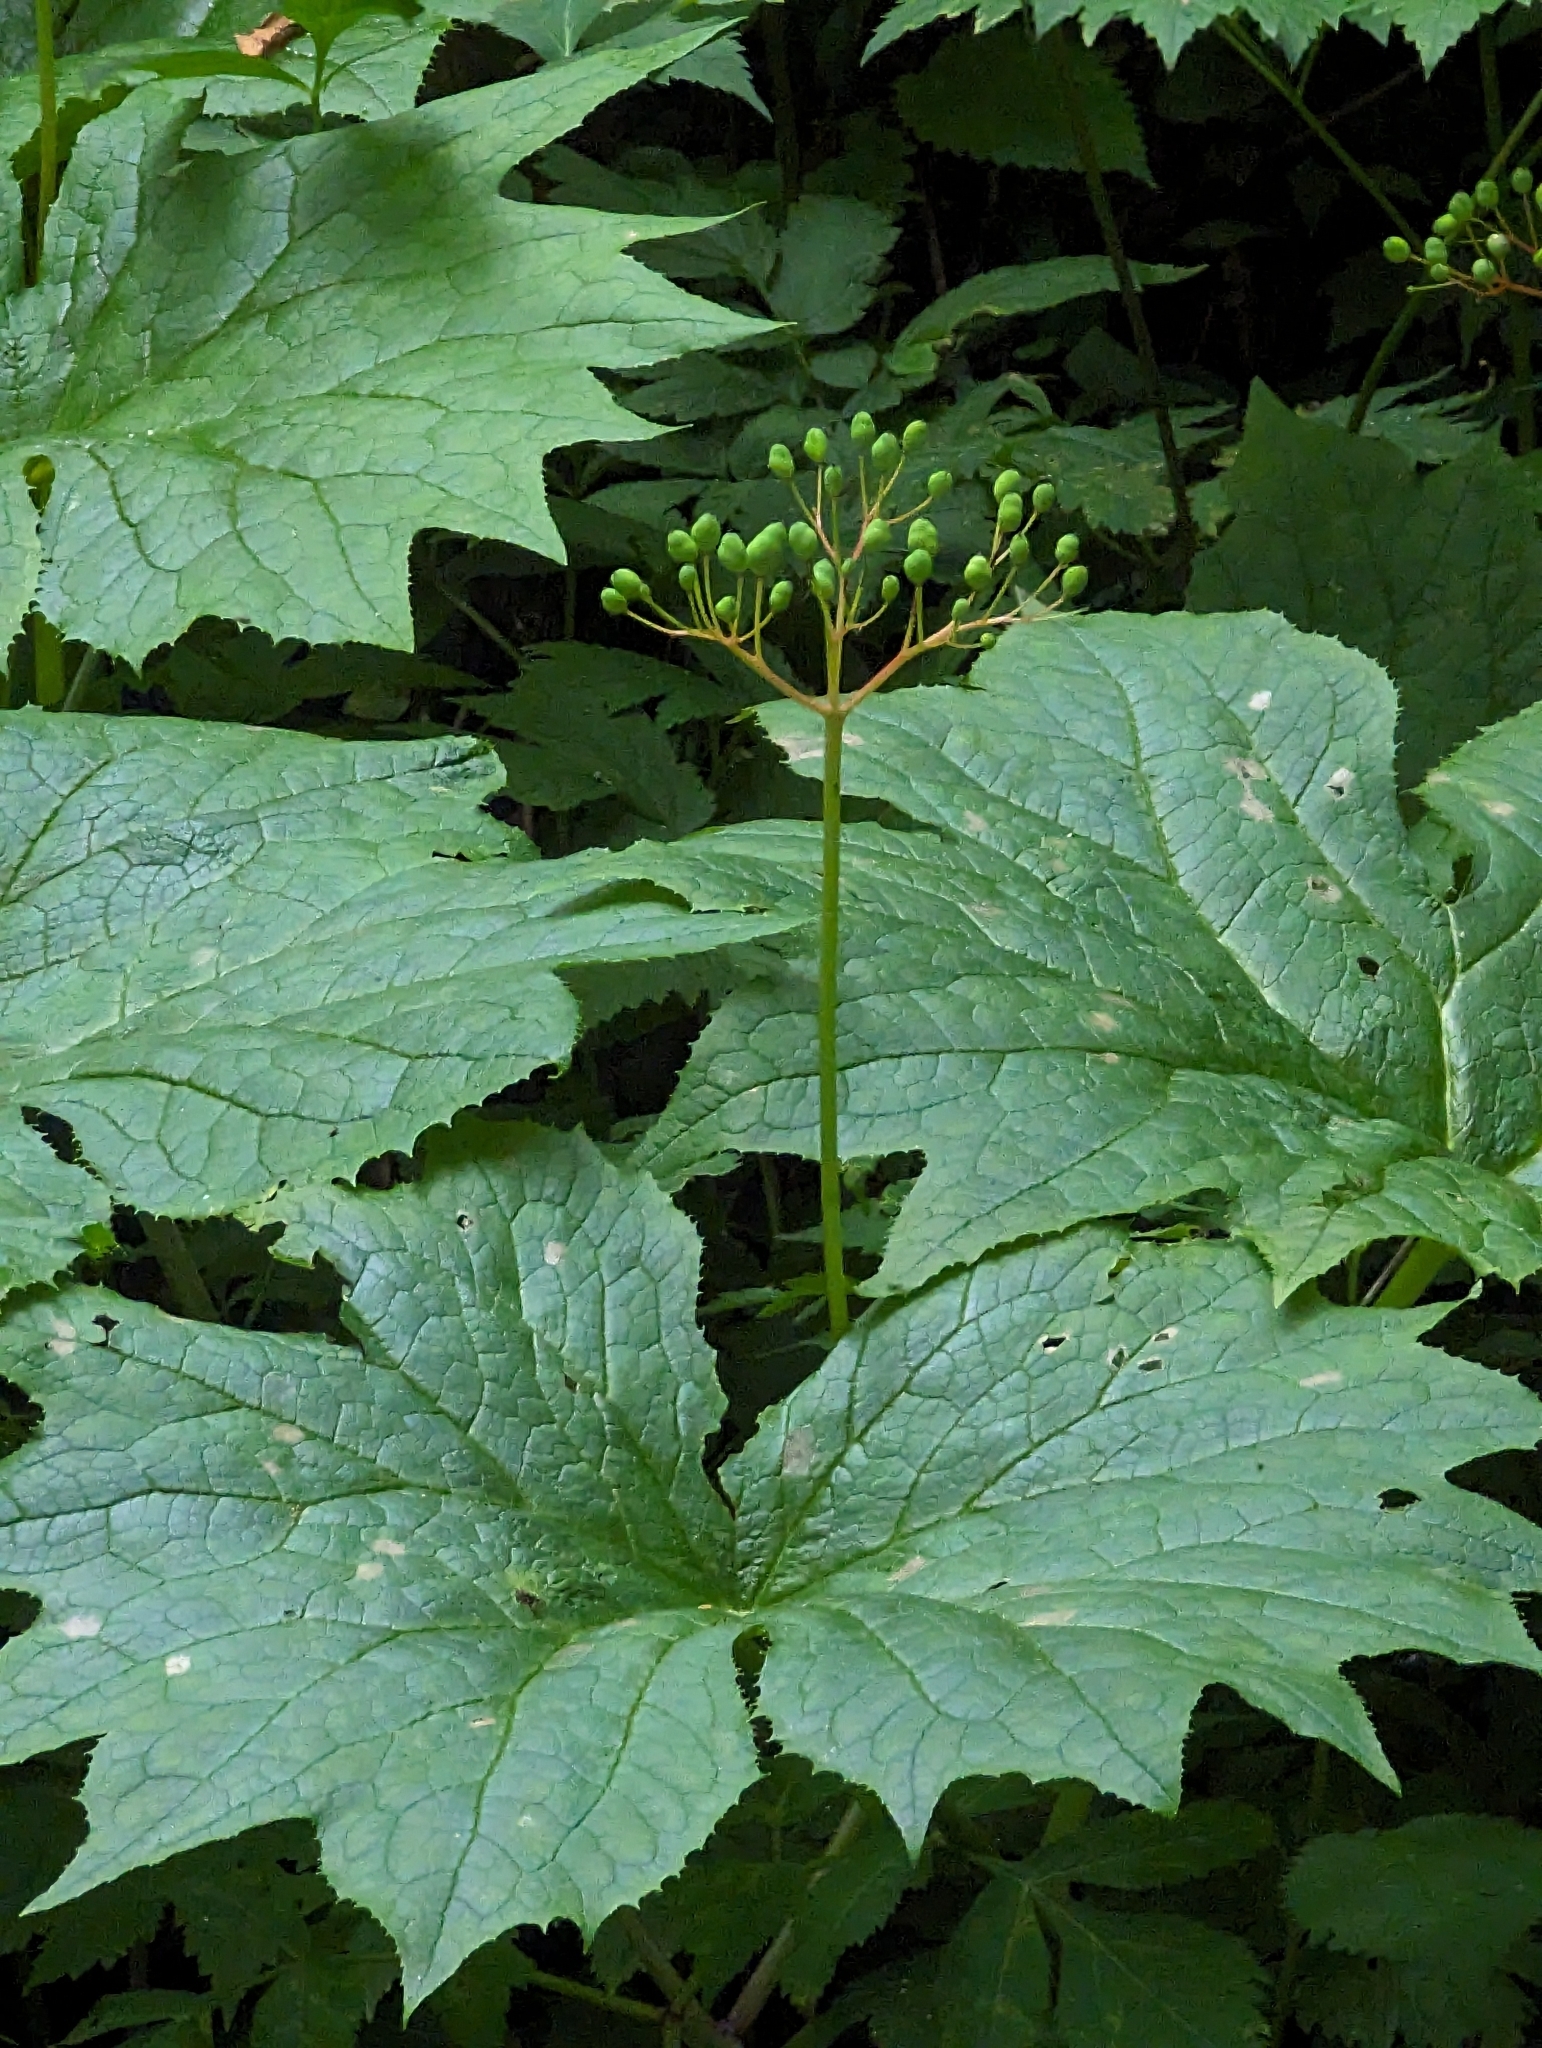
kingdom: Plantae
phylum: Tracheophyta
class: Magnoliopsida
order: Ranunculales
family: Berberidaceae
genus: Diphylleia
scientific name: Diphylleia cymosa
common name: Umbrella-leaf
